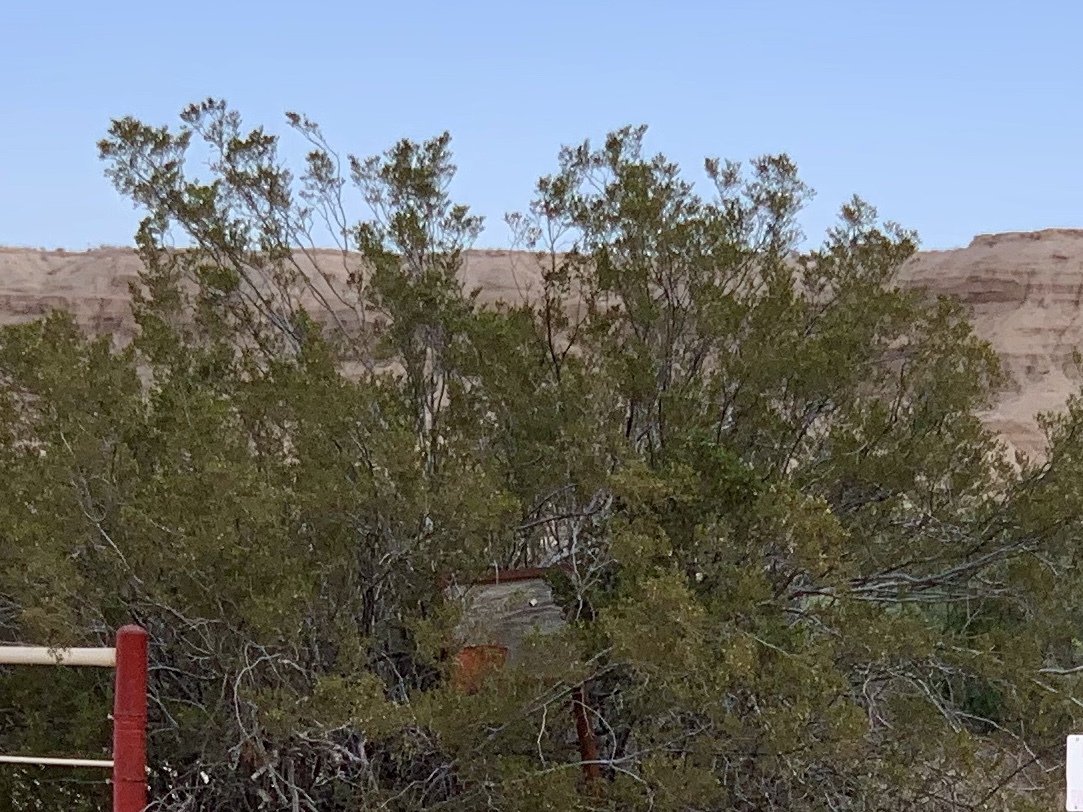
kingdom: Plantae
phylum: Tracheophyta
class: Magnoliopsida
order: Zygophyllales
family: Zygophyllaceae
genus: Larrea
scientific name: Larrea tridentata
